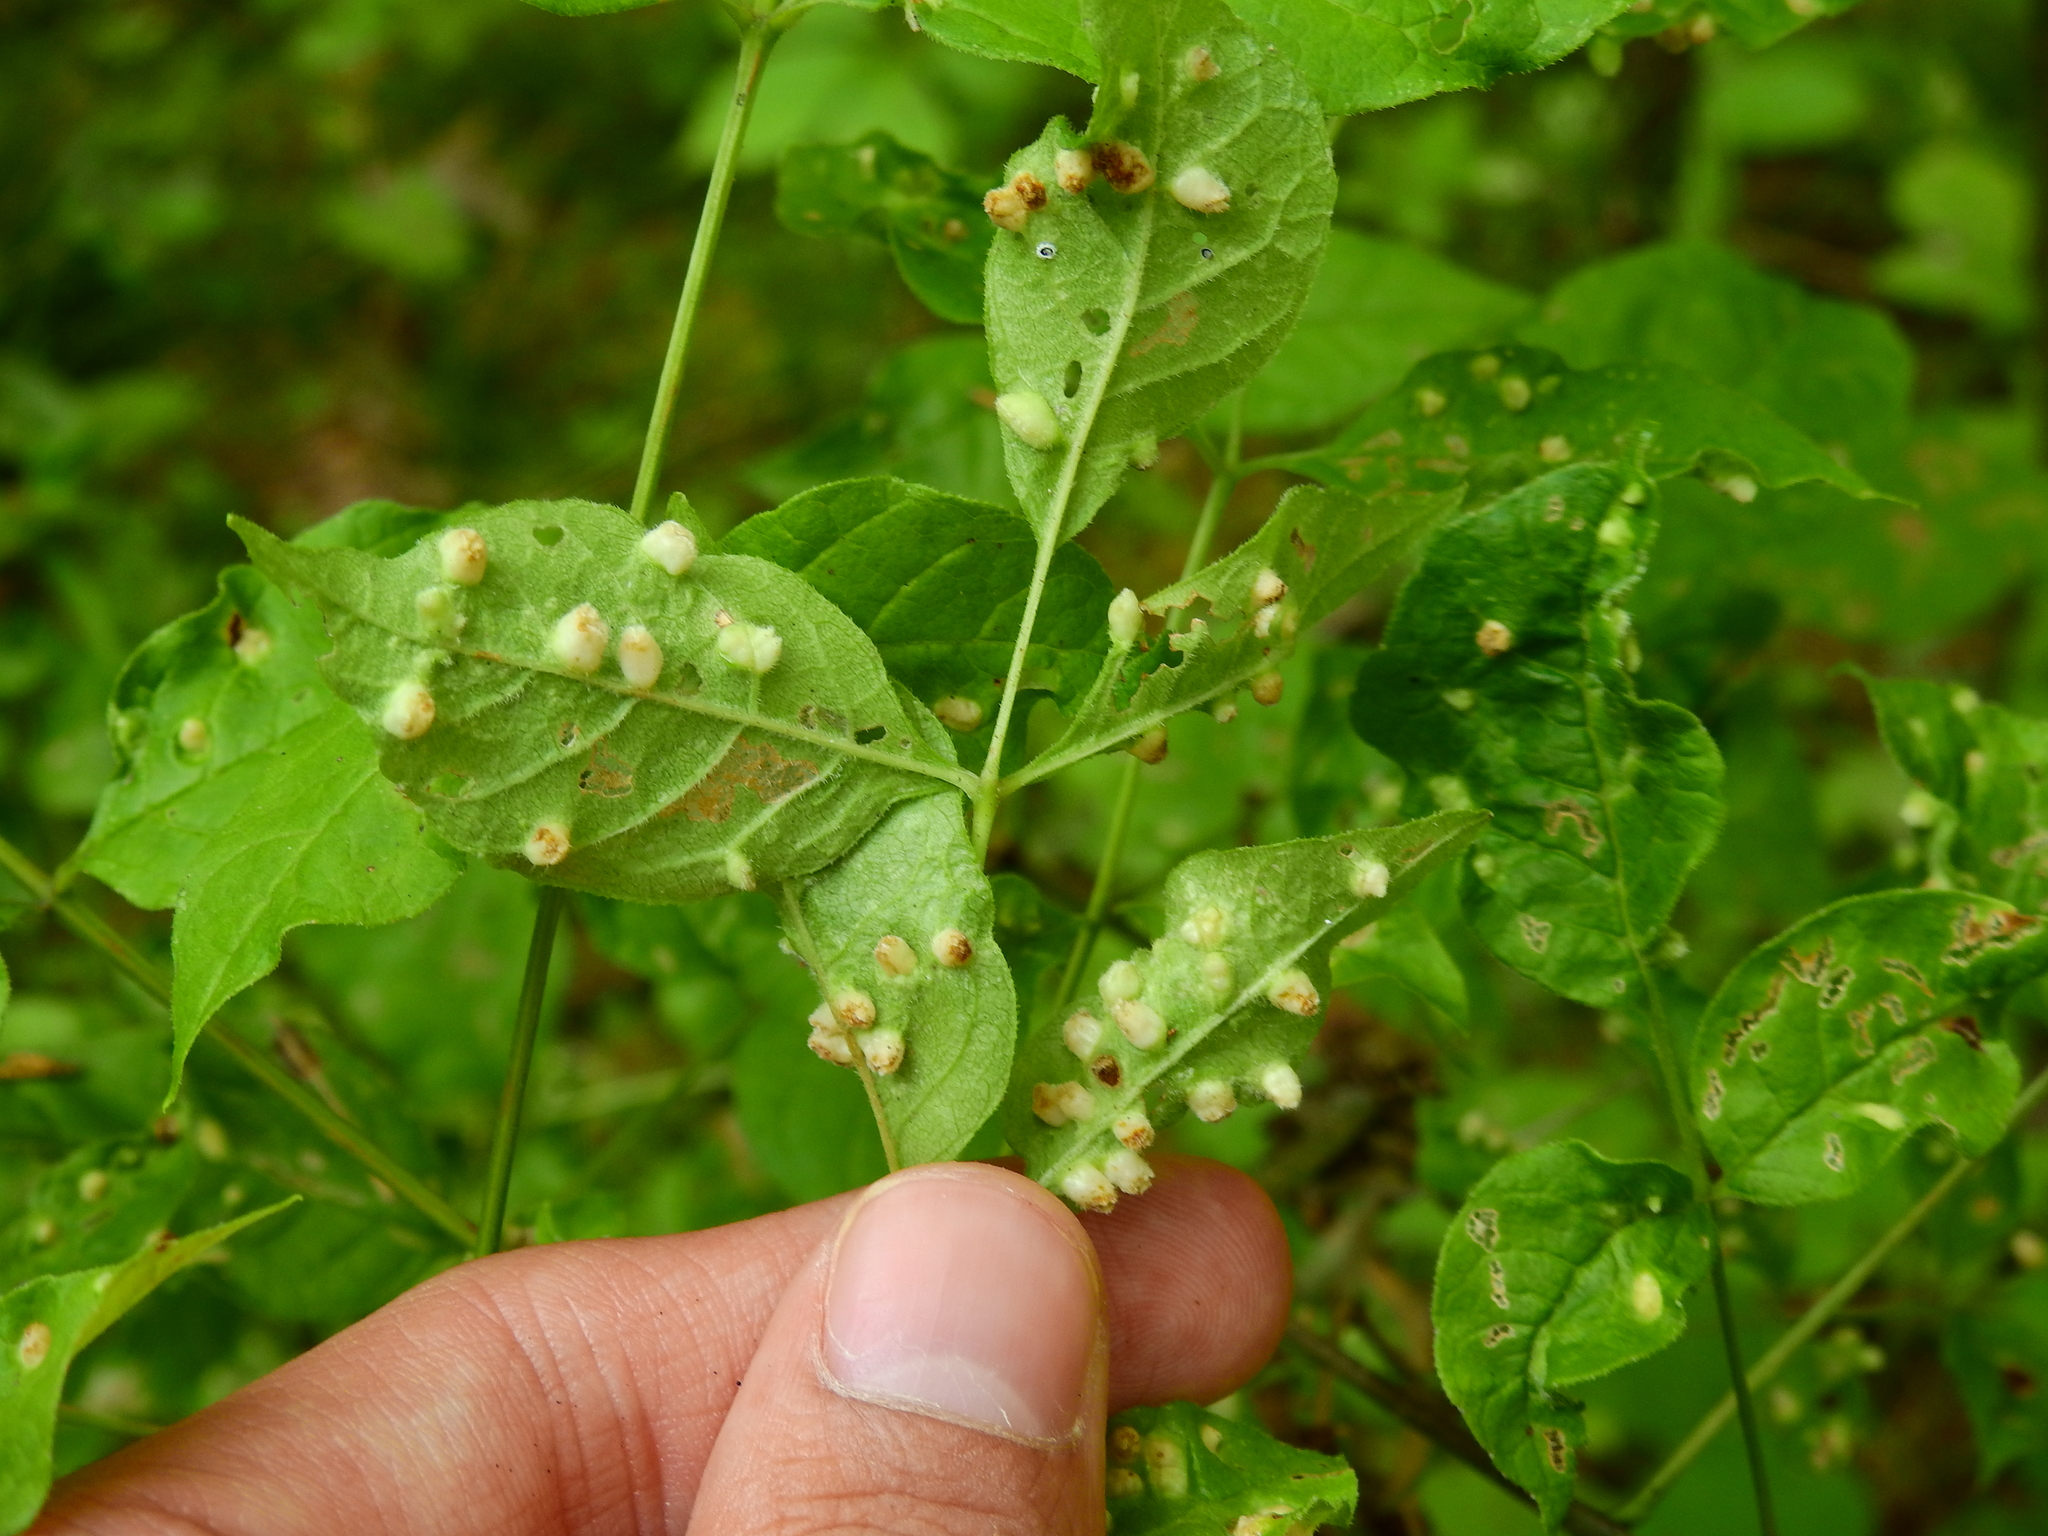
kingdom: Animalia
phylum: Arthropoda
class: Arachnida
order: Trombidiformes
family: Eriophyidae
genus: Aceria
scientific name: Aceria fraxinicola
